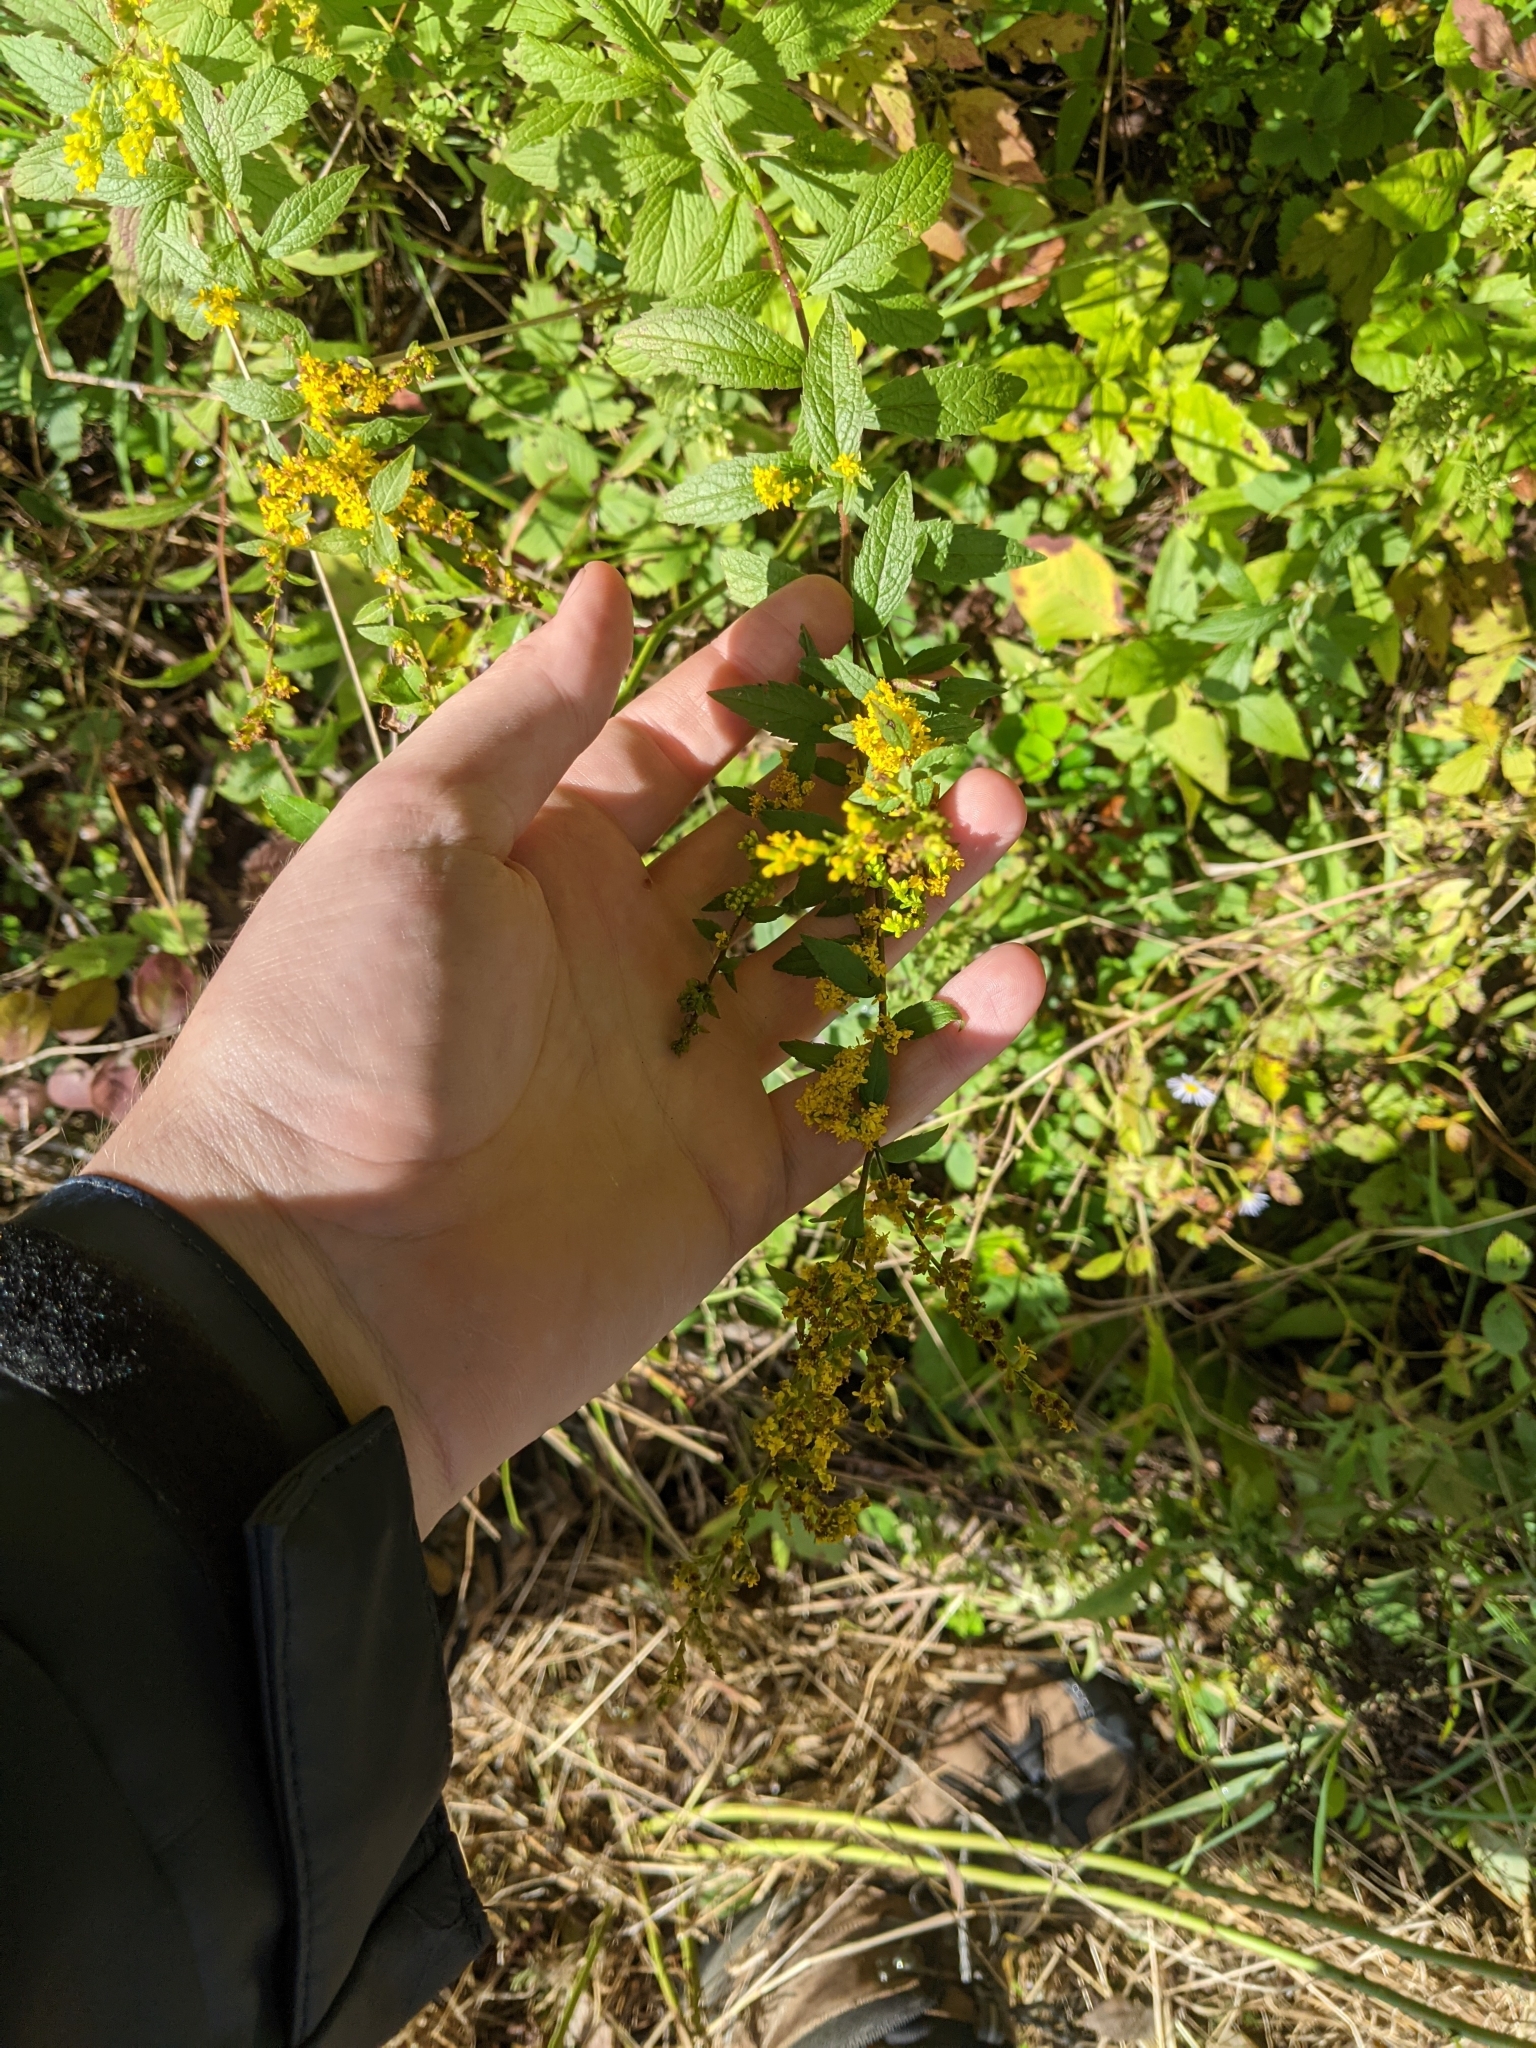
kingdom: Plantae
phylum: Tracheophyta
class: Magnoliopsida
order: Asterales
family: Asteraceae
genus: Solidago
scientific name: Solidago rugosa
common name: Rough-stemmed goldenrod
